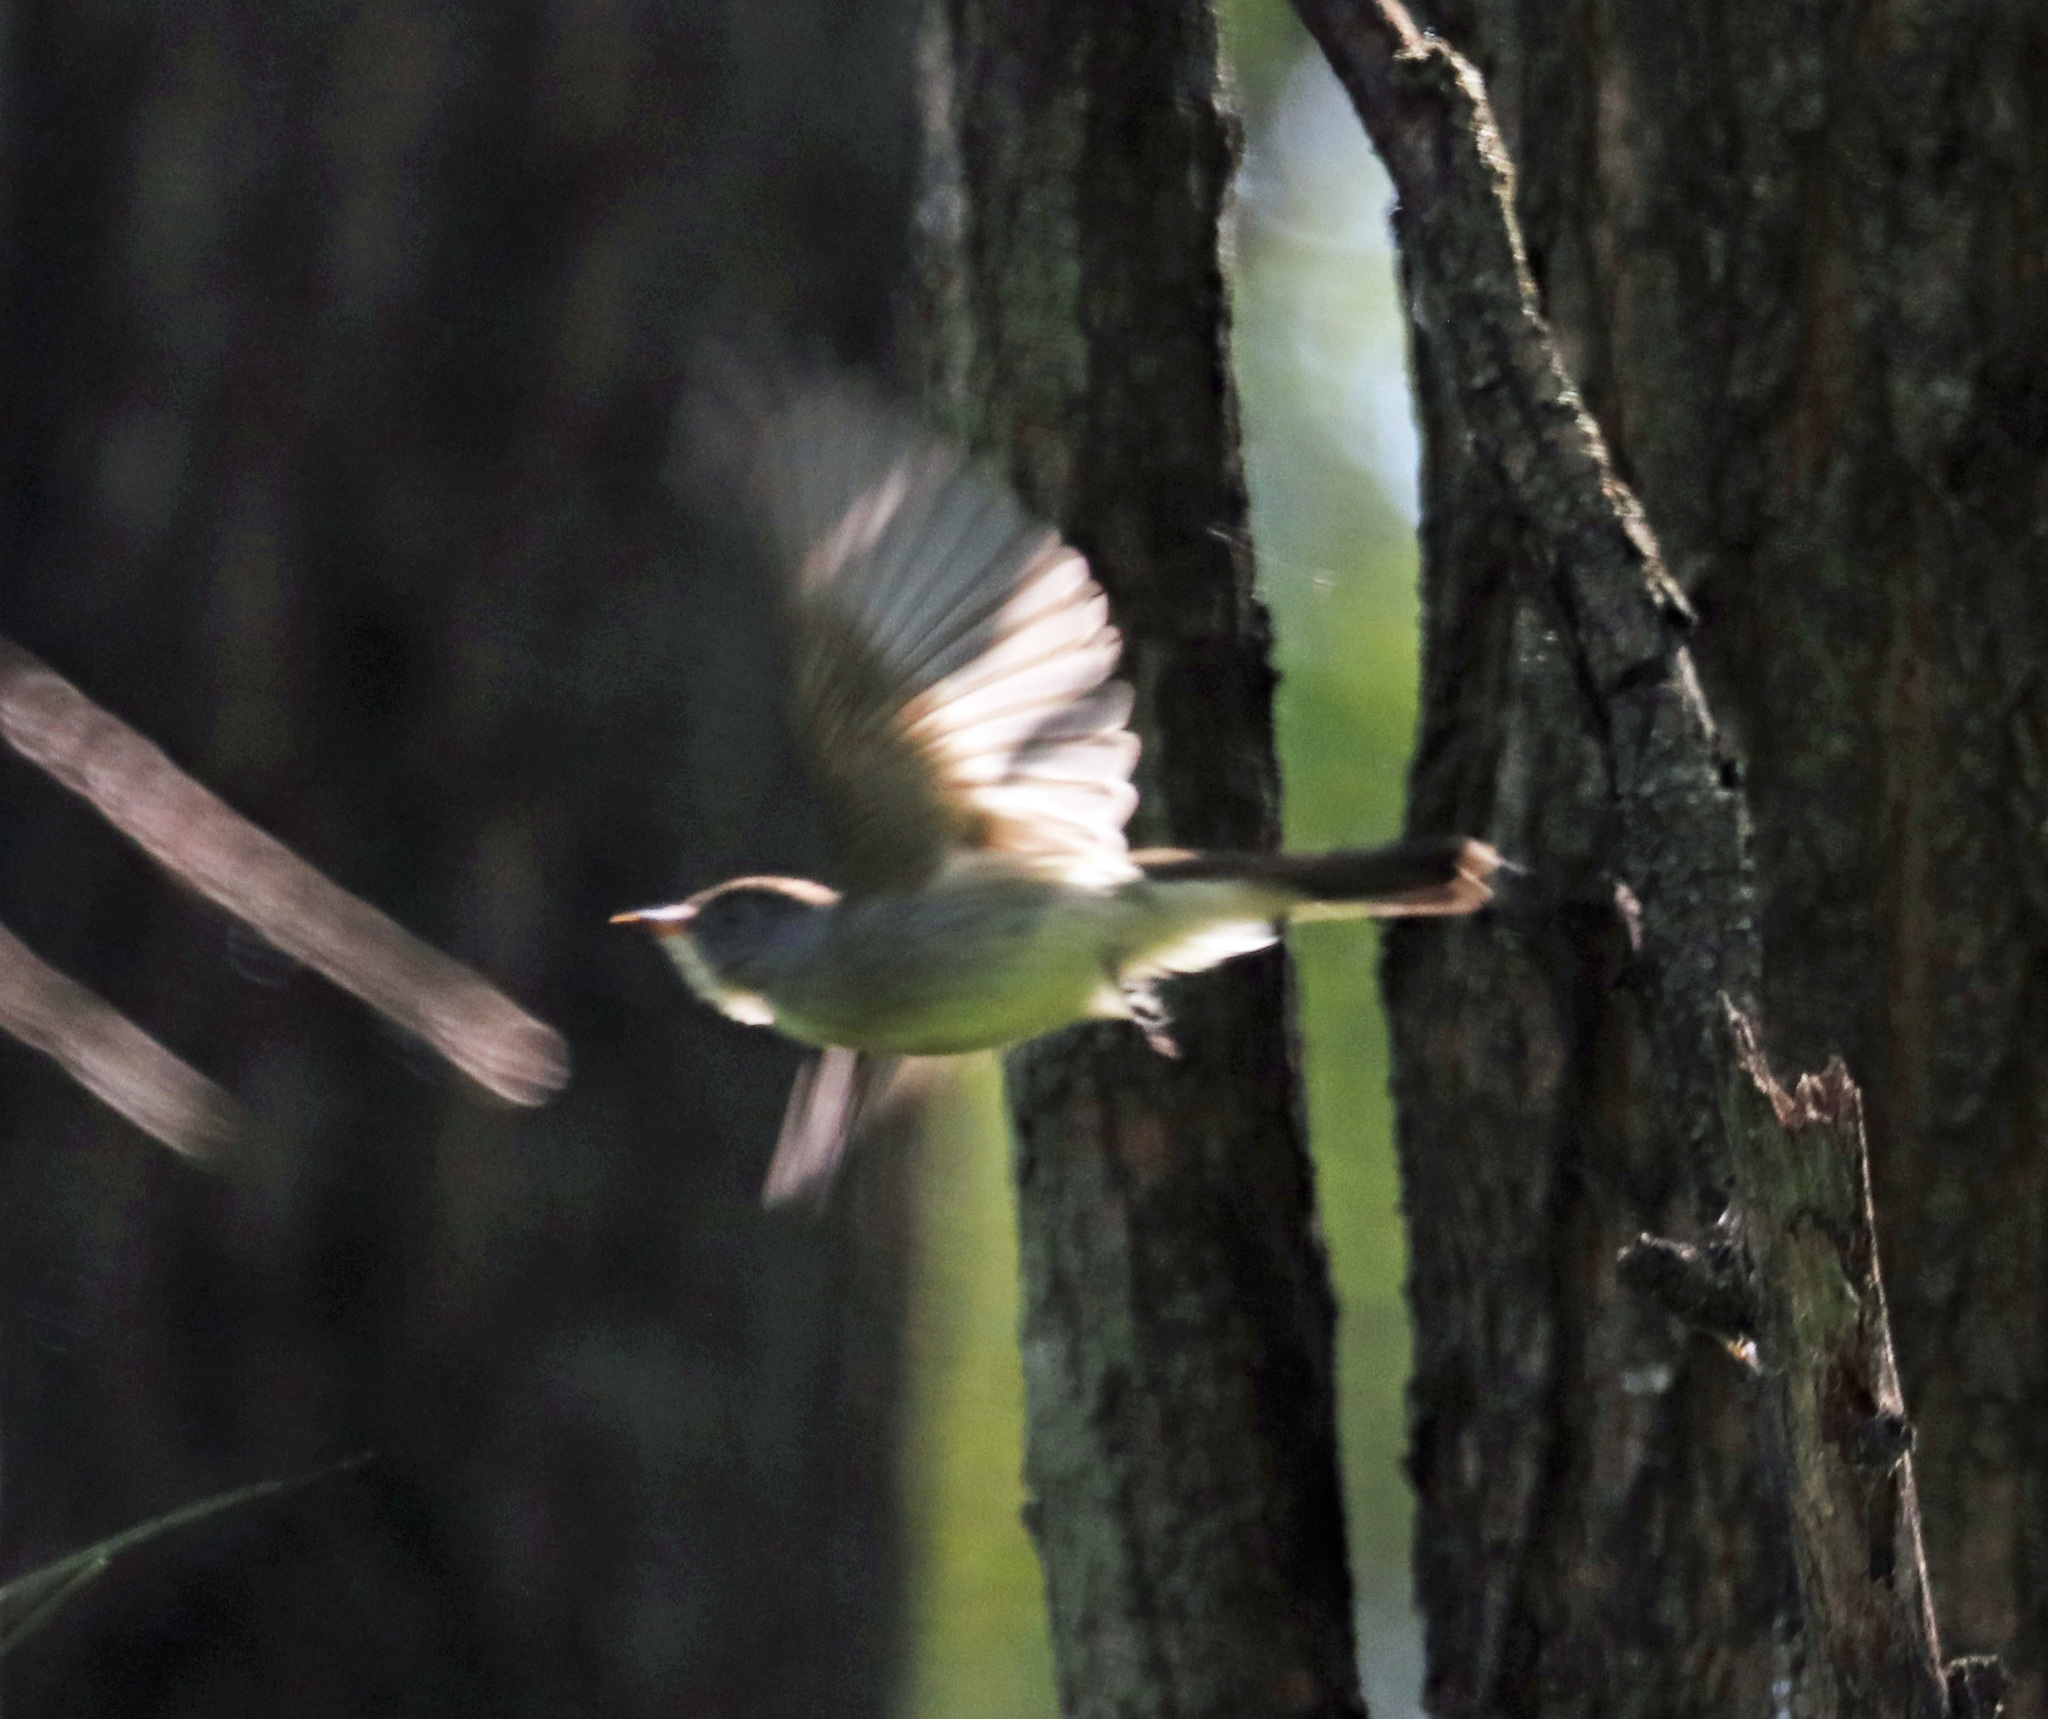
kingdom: Animalia
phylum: Chordata
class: Aves
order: Passeriformes
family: Tyrannidae
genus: Contopus
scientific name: Contopus virens
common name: Eastern wood-pewee
